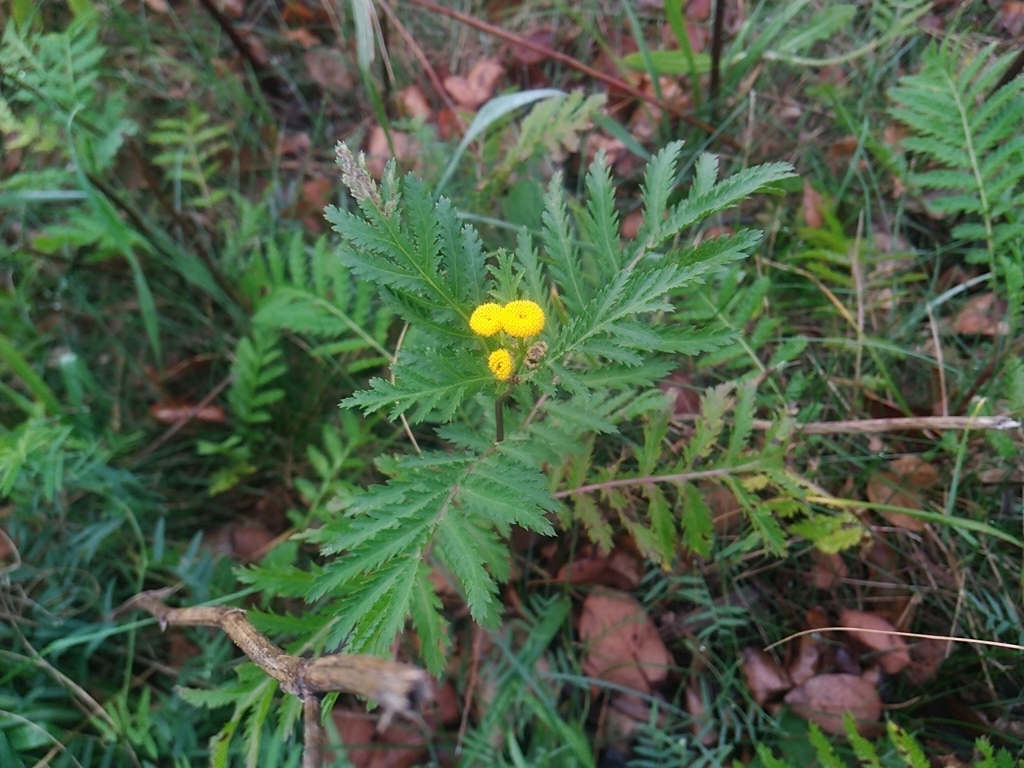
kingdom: Plantae
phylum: Tracheophyta
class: Magnoliopsida
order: Asterales
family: Asteraceae
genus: Tanacetum
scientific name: Tanacetum vulgare
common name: Common tansy
